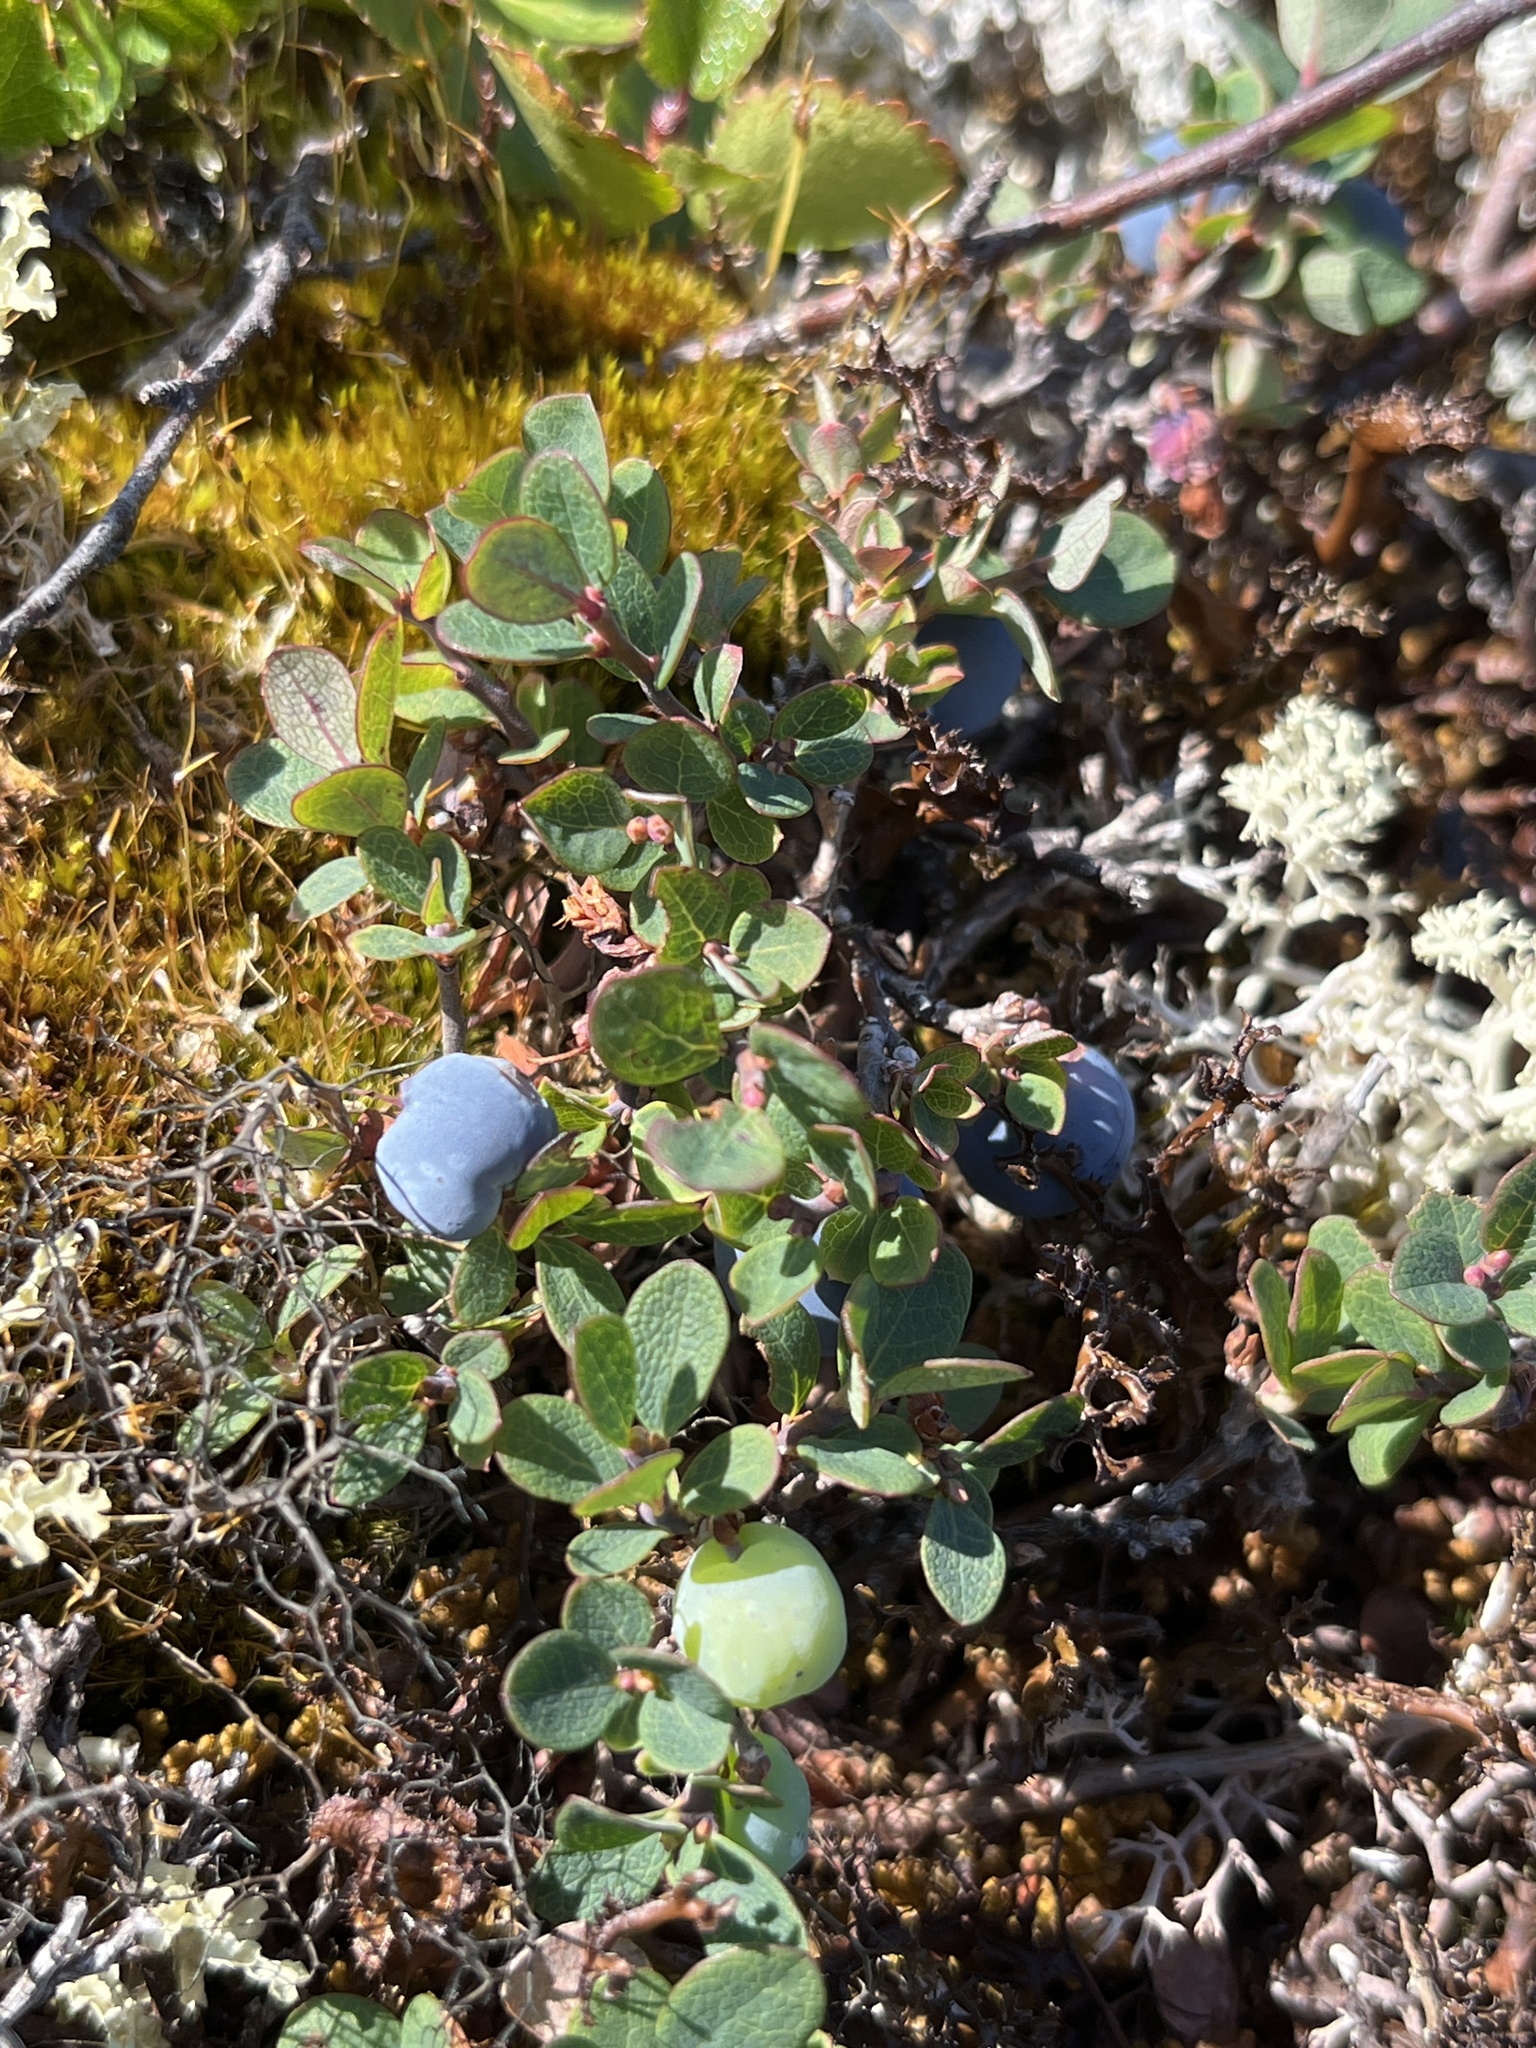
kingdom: Plantae
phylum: Tracheophyta
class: Magnoliopsida
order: Ericales
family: Ericaceae
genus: Vaccinium
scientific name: Vaccinium uliginosum
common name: Bog bilberry
